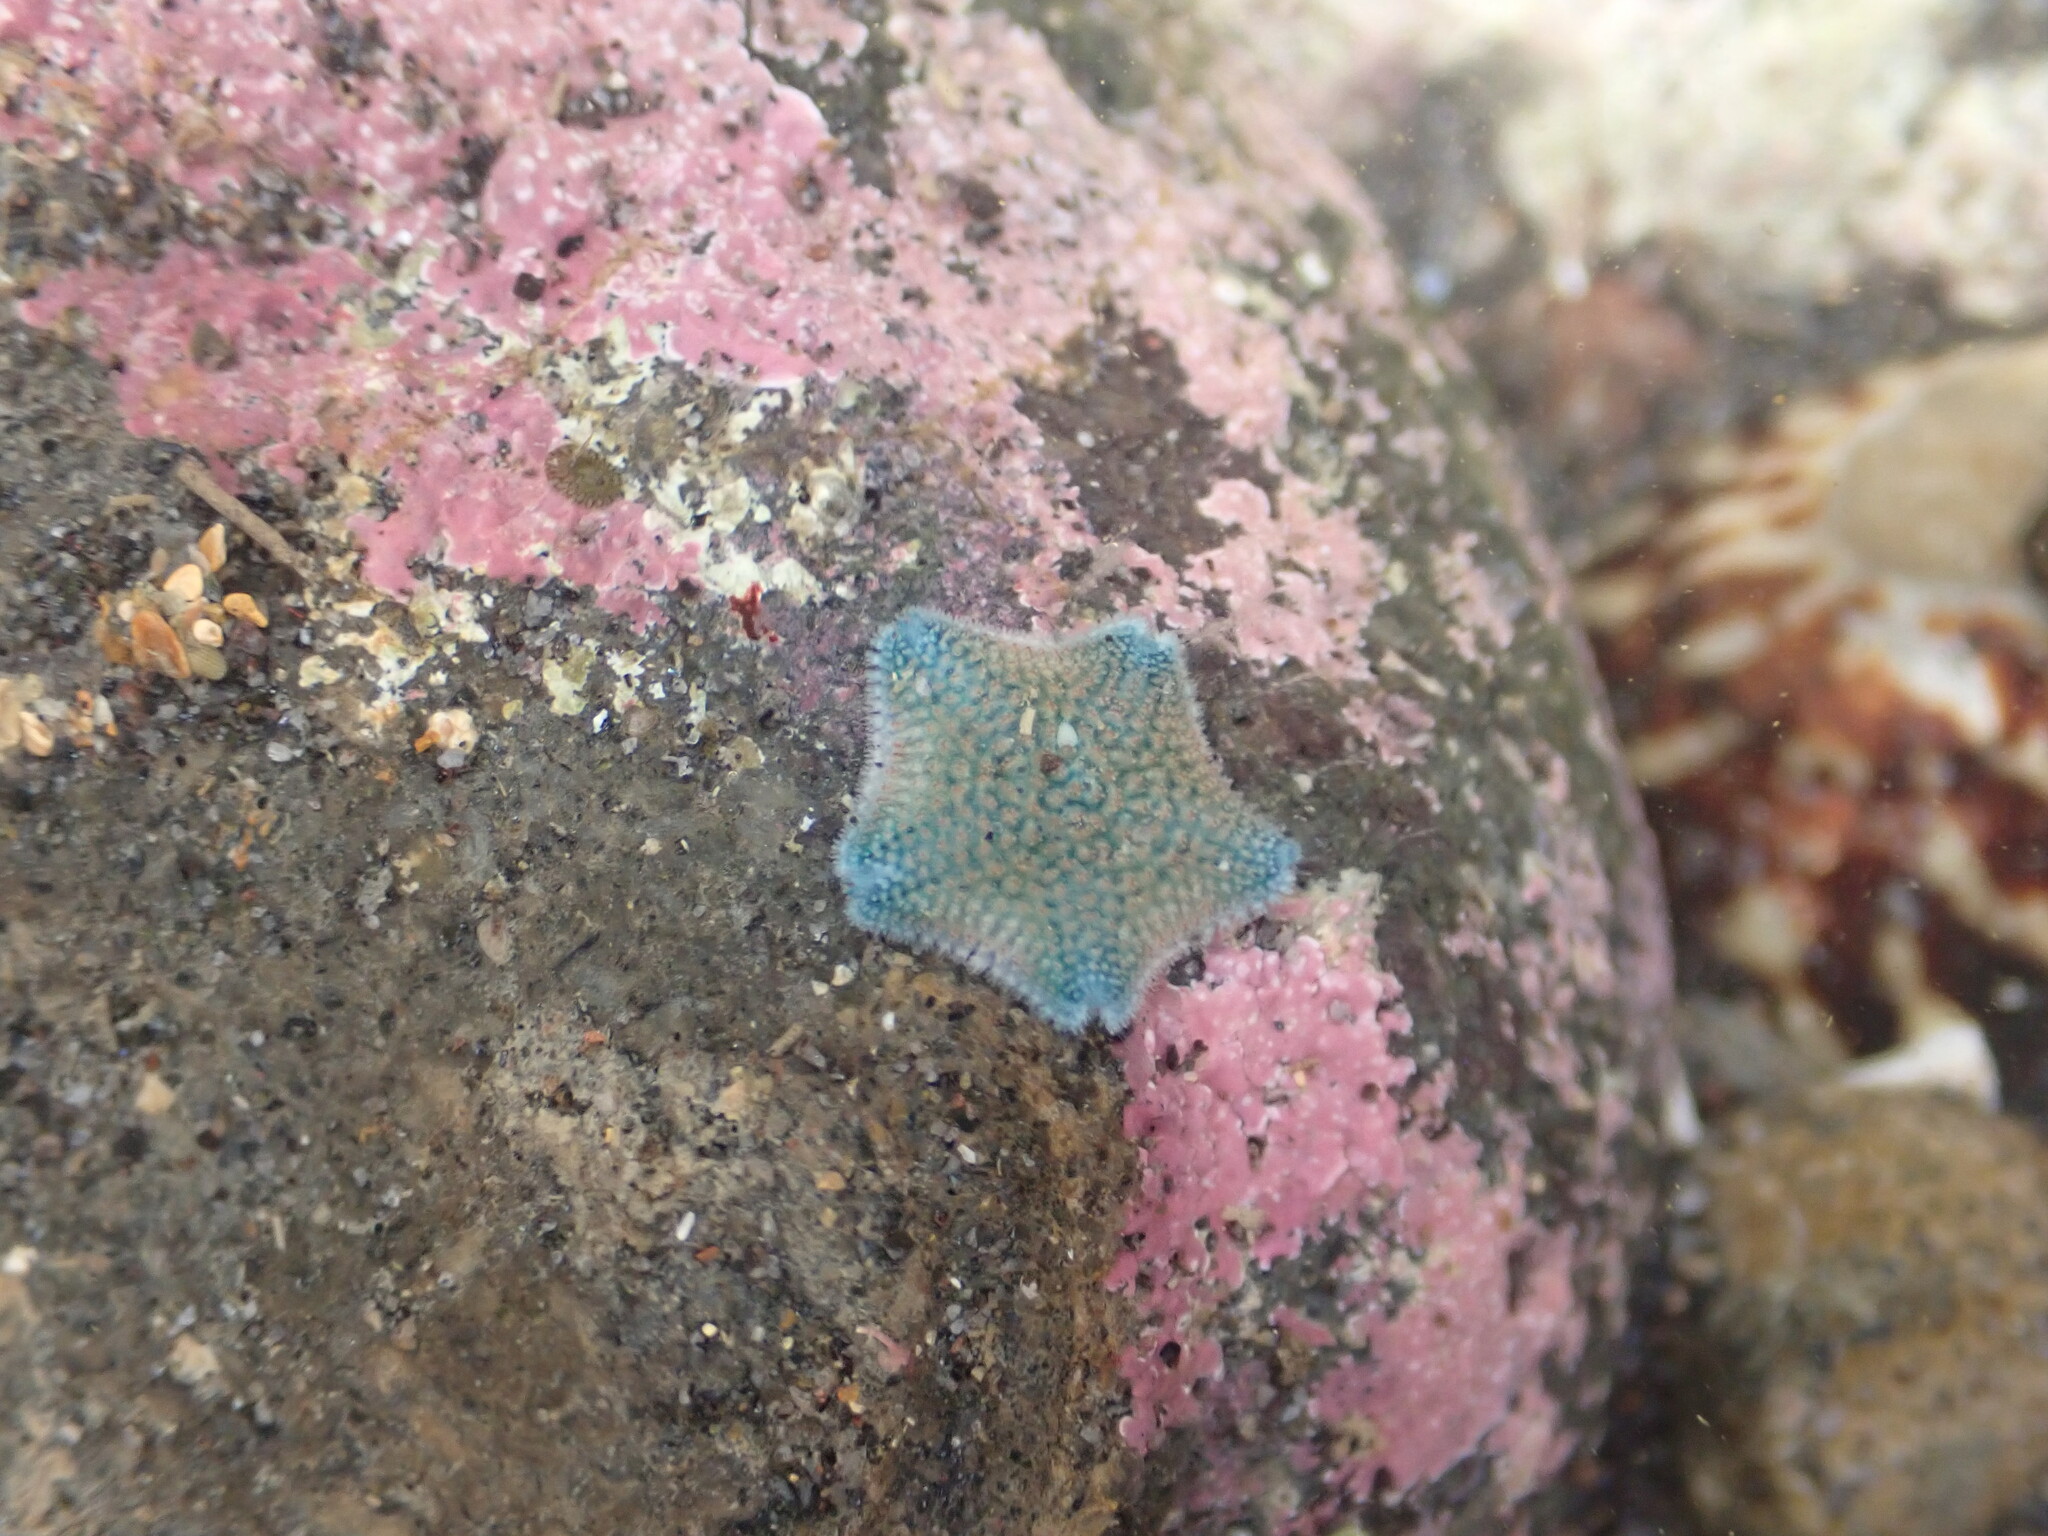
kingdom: Animalia
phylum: Echinodermata
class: Asteroidea
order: Valvatida
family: Asterinidae
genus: Patiriella
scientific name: Patiriella regularis
